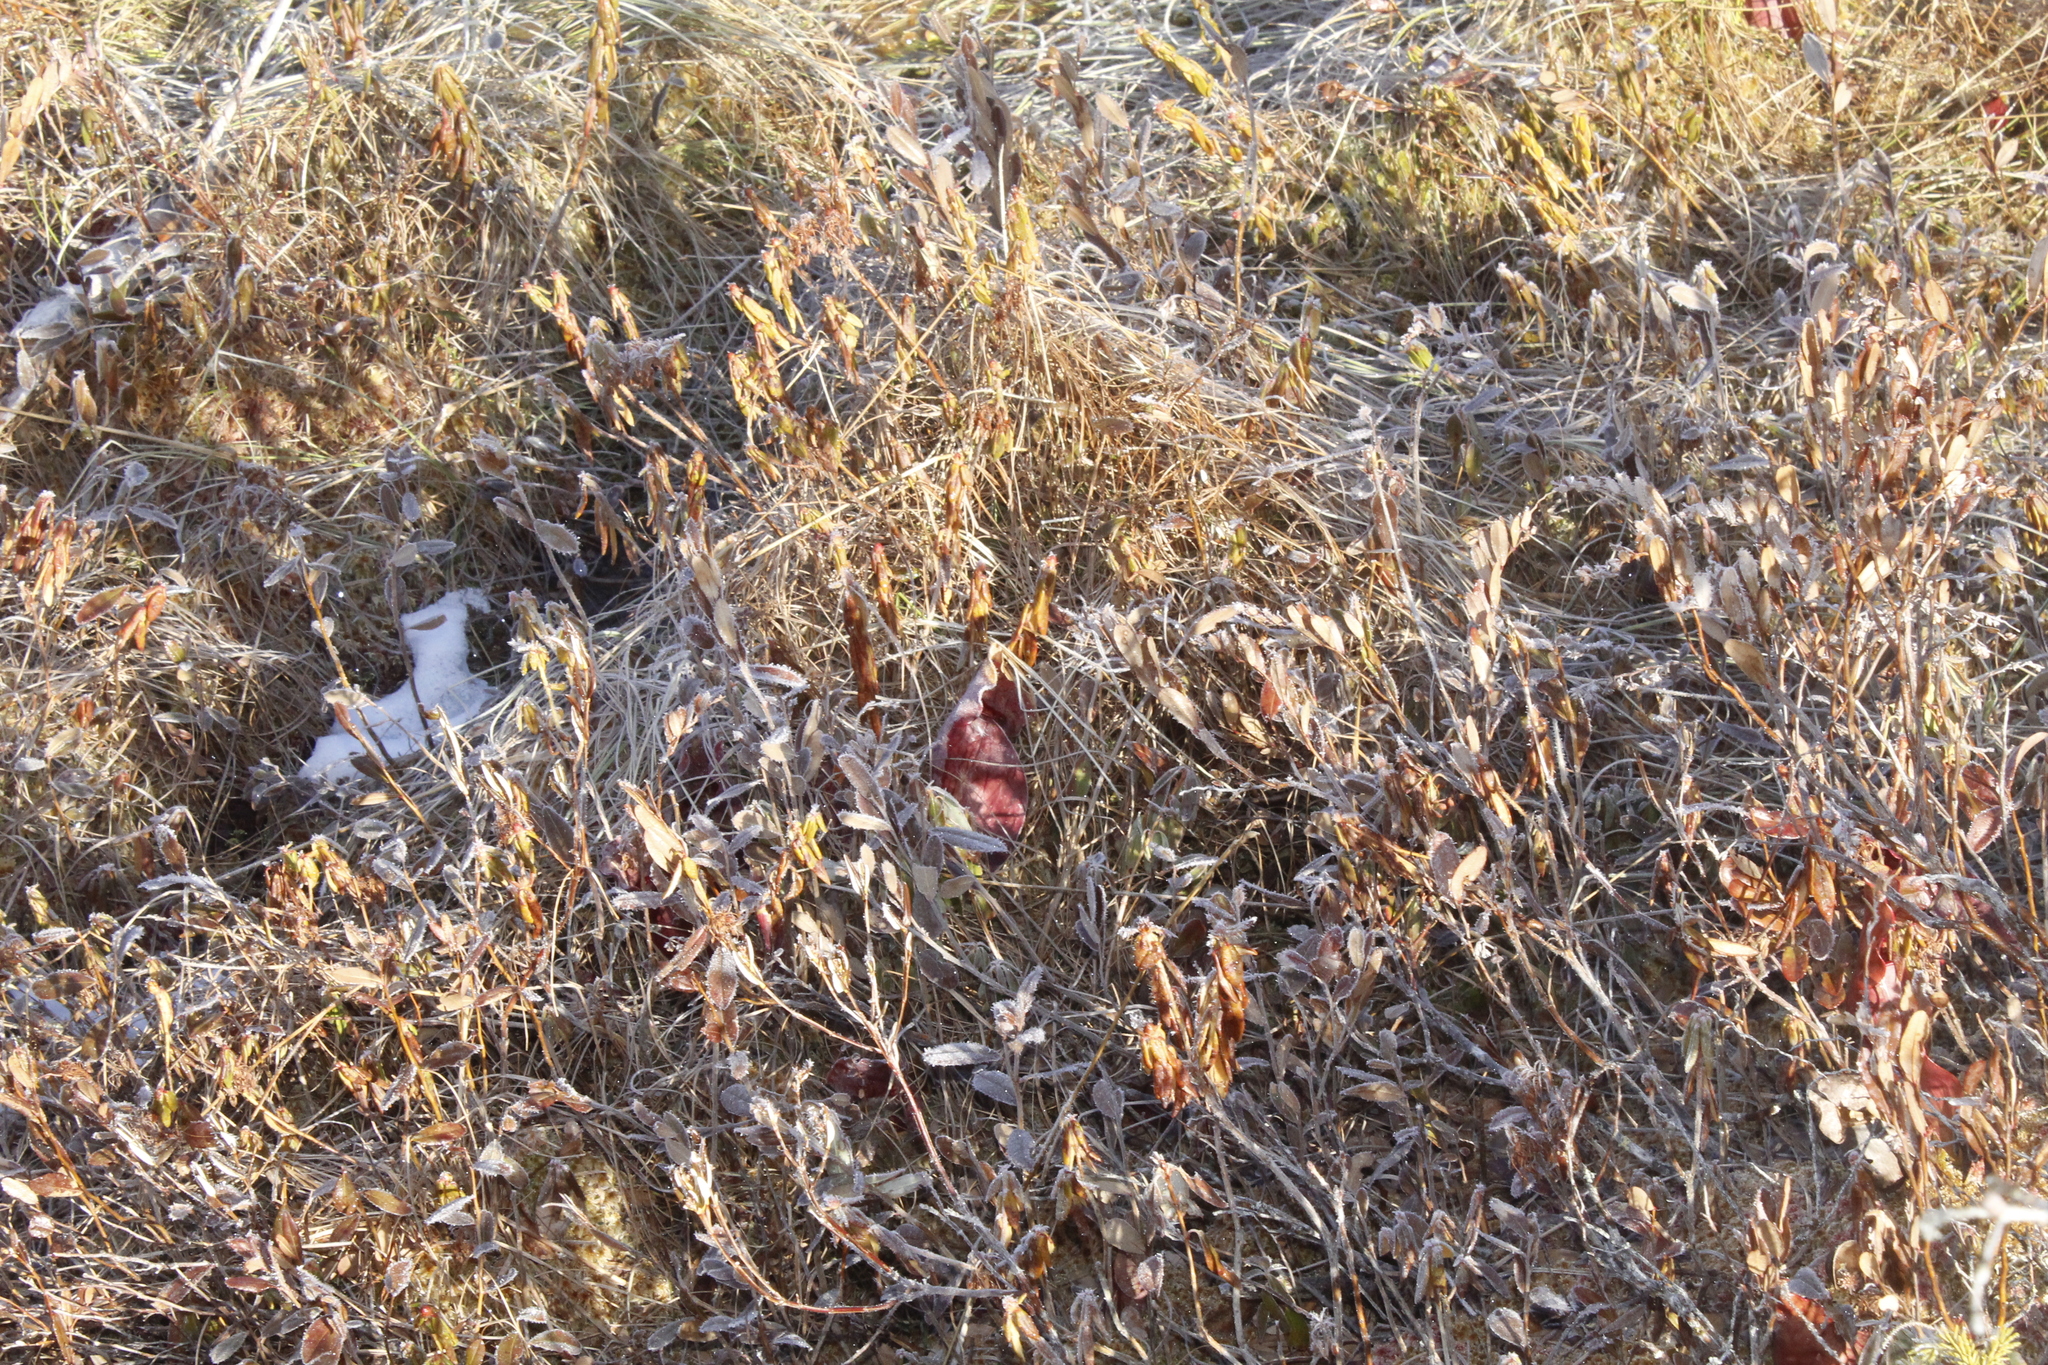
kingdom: Plantae
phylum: Tracheophyta
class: Magnoliopsida
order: Ericales
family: Sarraceniaceae
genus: Sarracenia
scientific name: Sarracenia purpurea
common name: Pitcherplant
